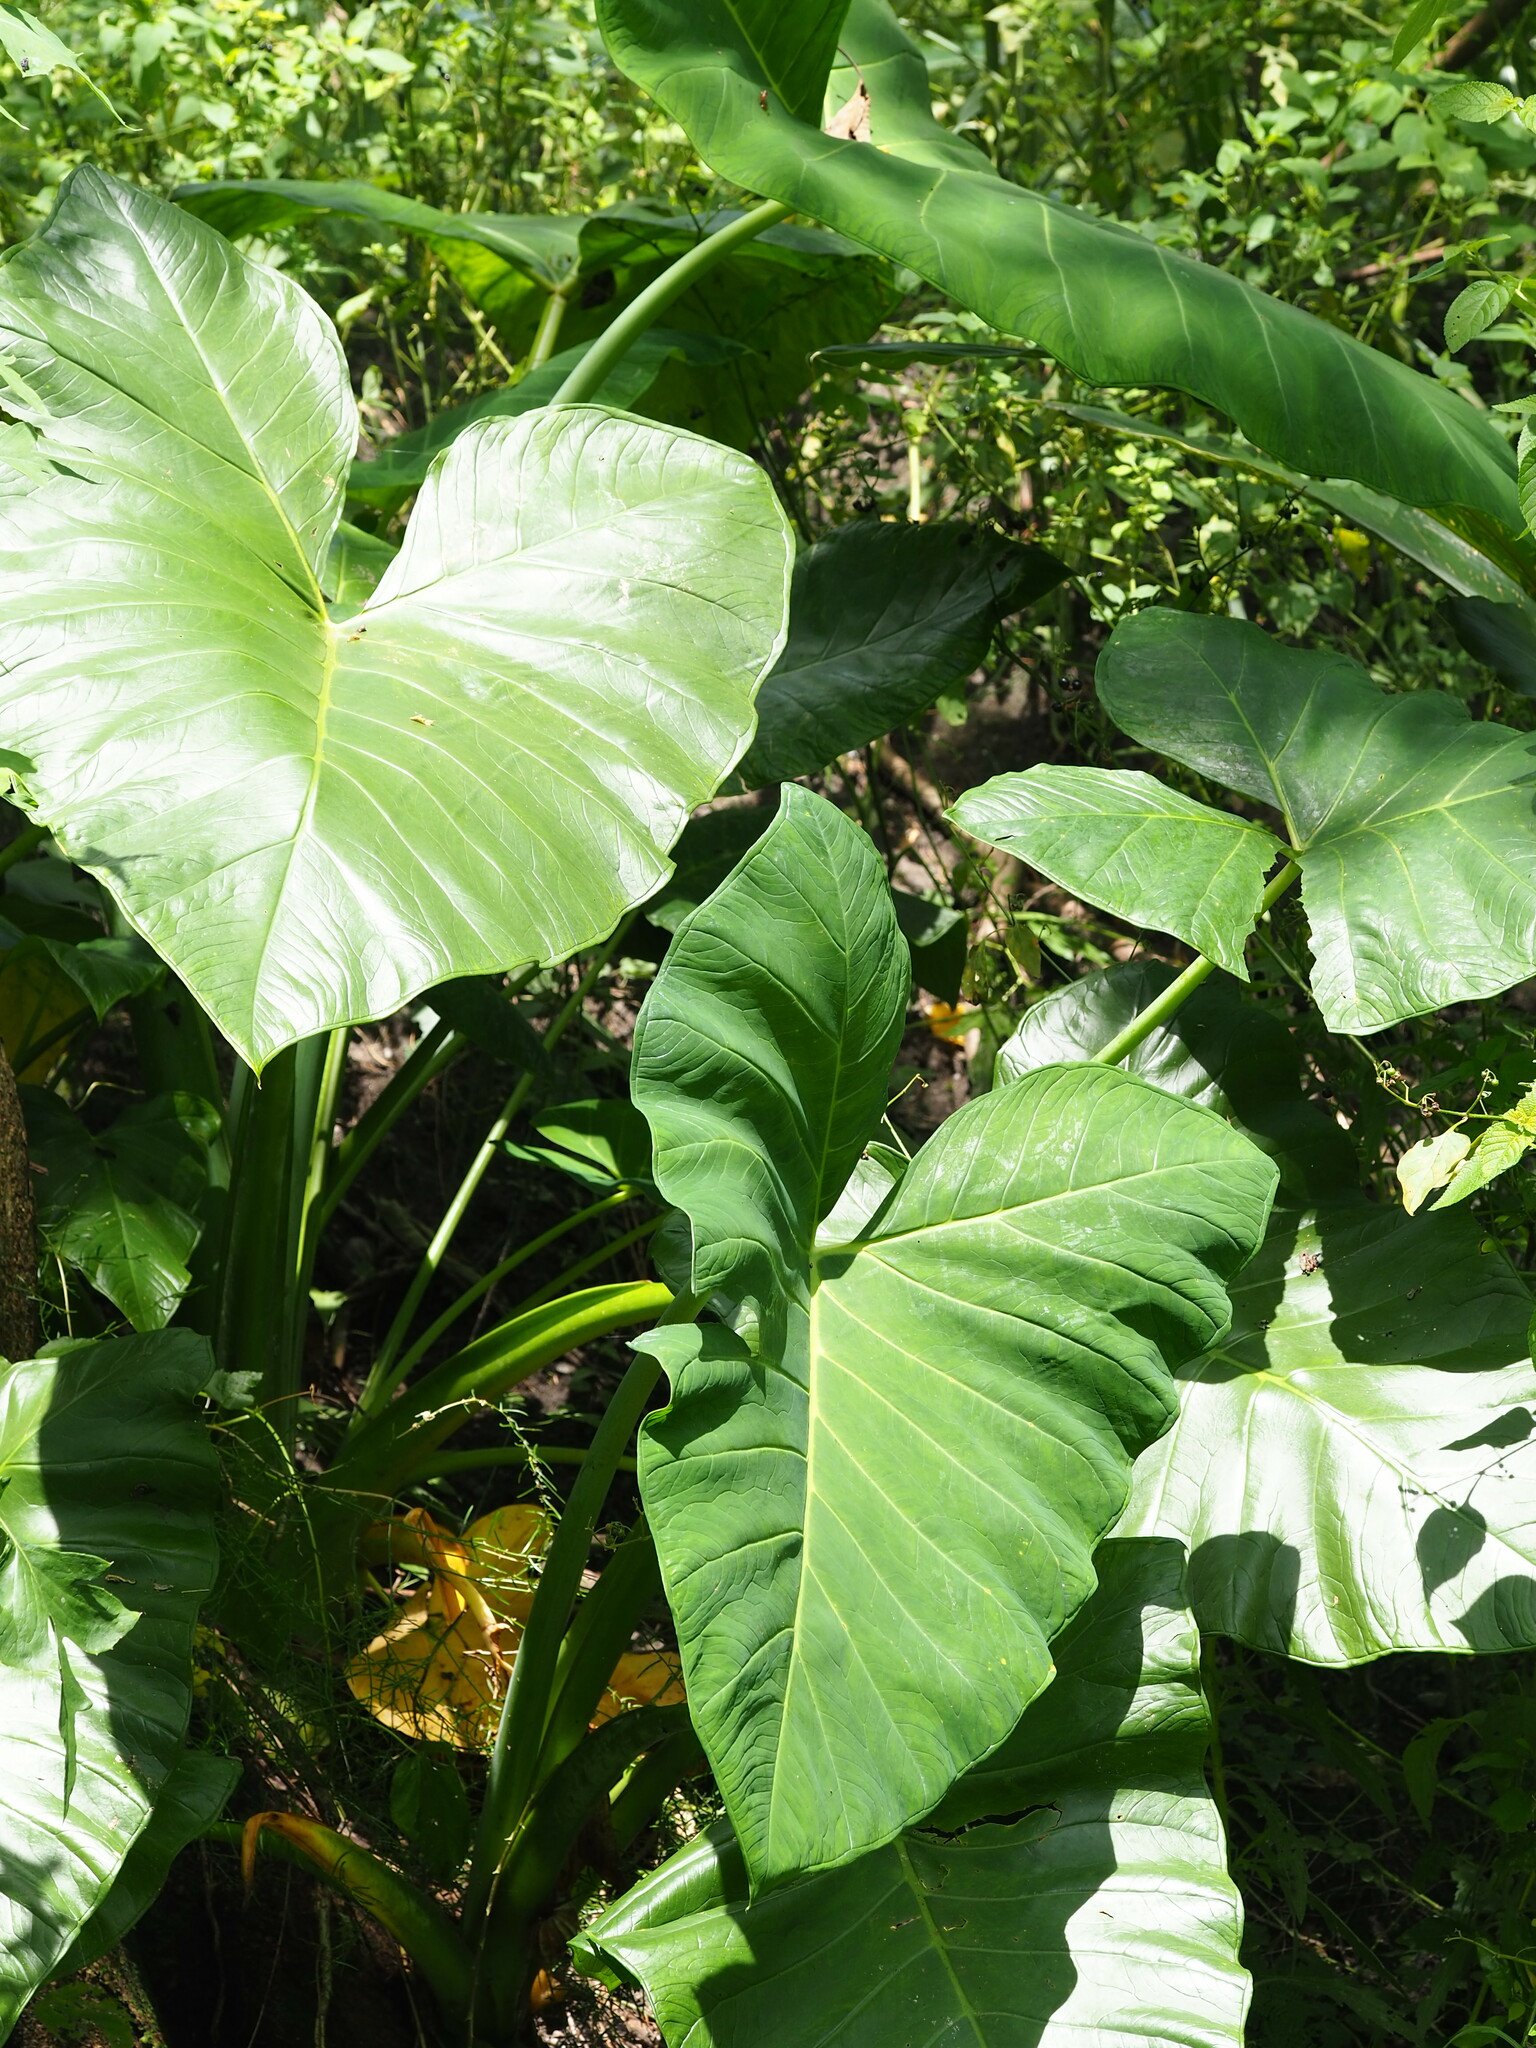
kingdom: Plantae
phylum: Tracheophyta
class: Liliopsida
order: Alismatales
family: Araceae
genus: Xanthosoma
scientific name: Xanthosoma sagittifolium
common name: Arrowleaf elephant's ear
